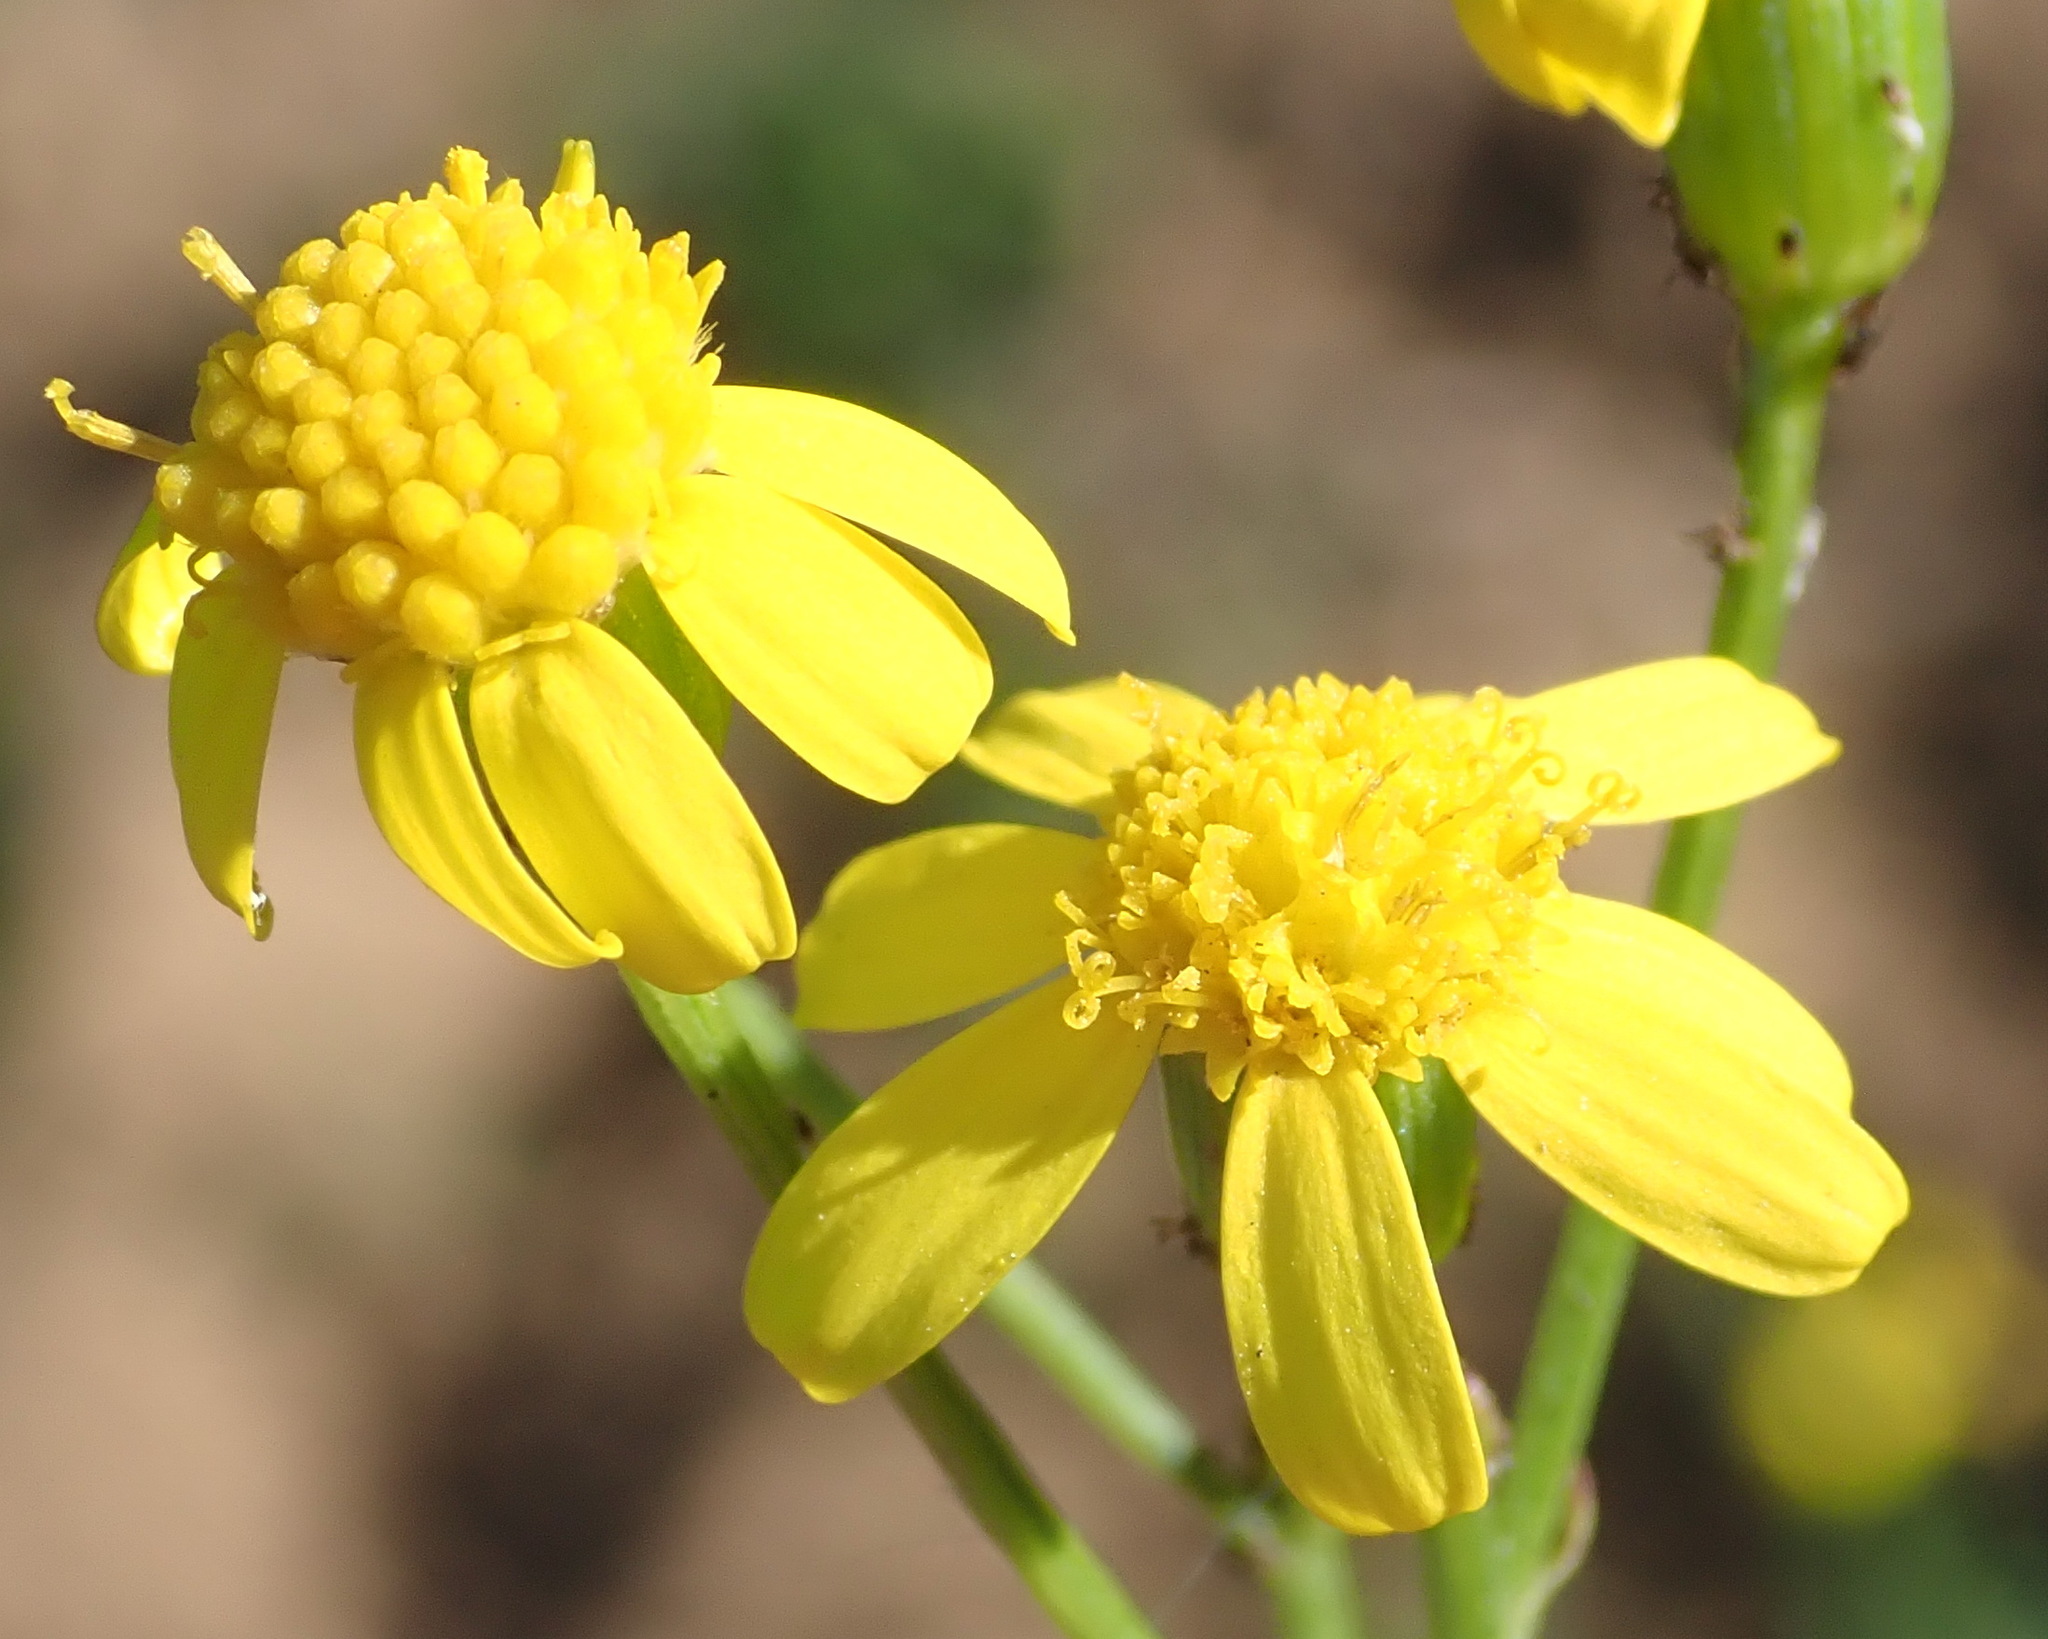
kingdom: Plantae
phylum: Tracheophyta
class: Magnoliopsida
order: Asterales
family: Asteraceae
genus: Senecio
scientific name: Senecio burchellii
